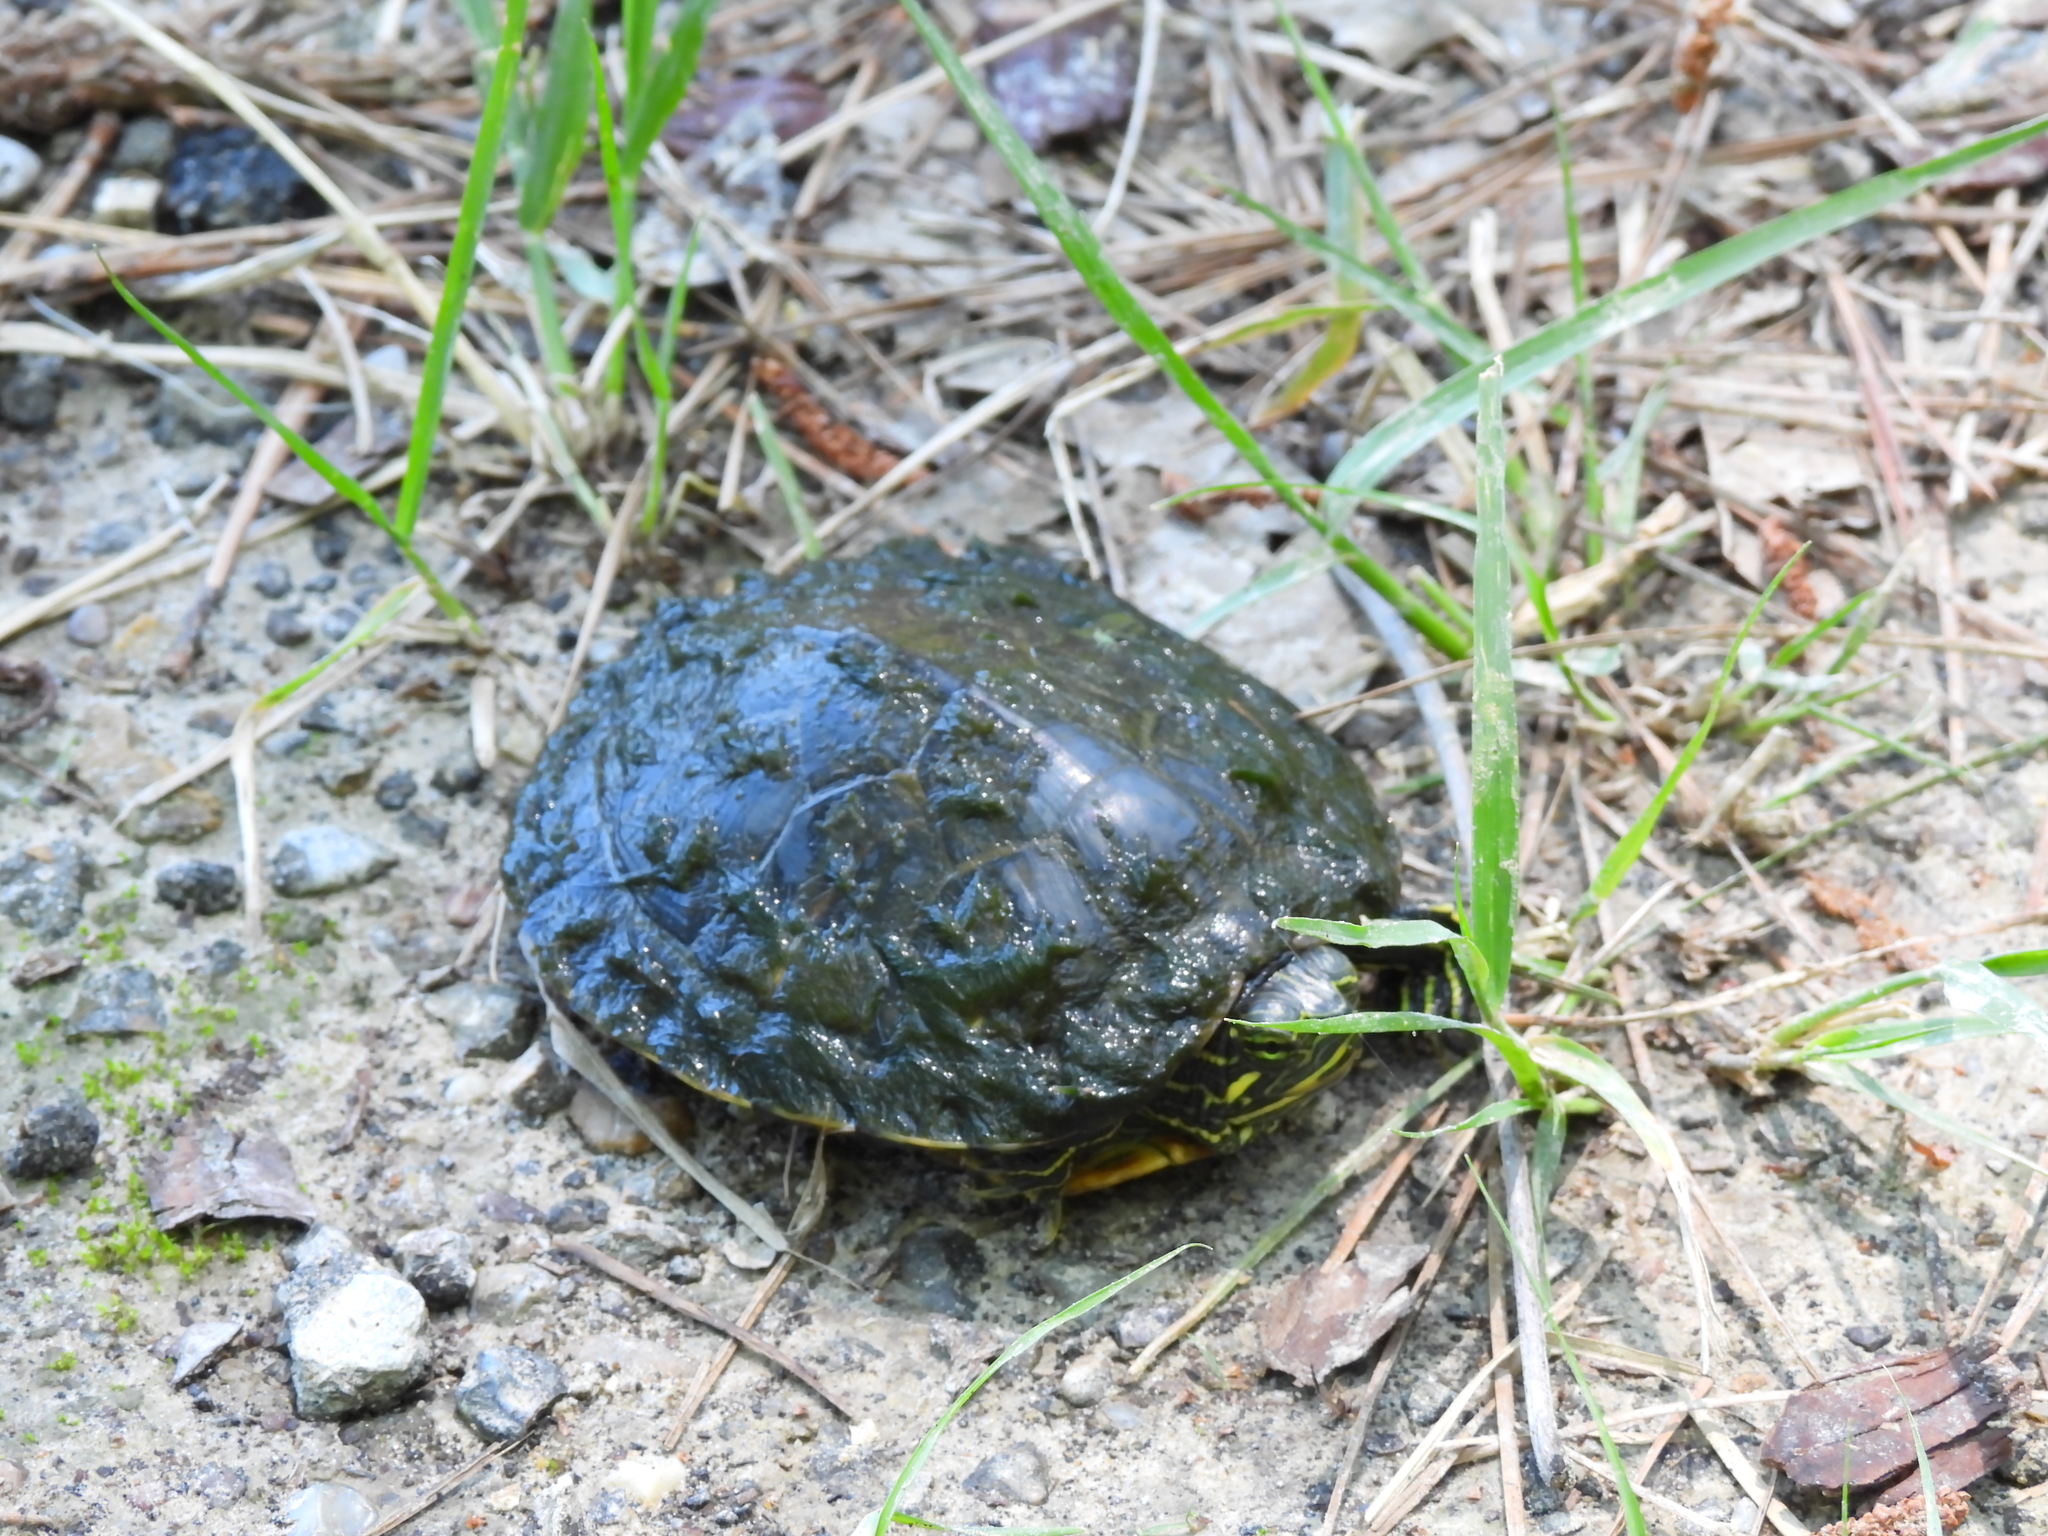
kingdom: Animalia
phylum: Chordata
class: Testudines
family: Emydidae
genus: Trachemys
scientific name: Trachemys scripta
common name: Slider
